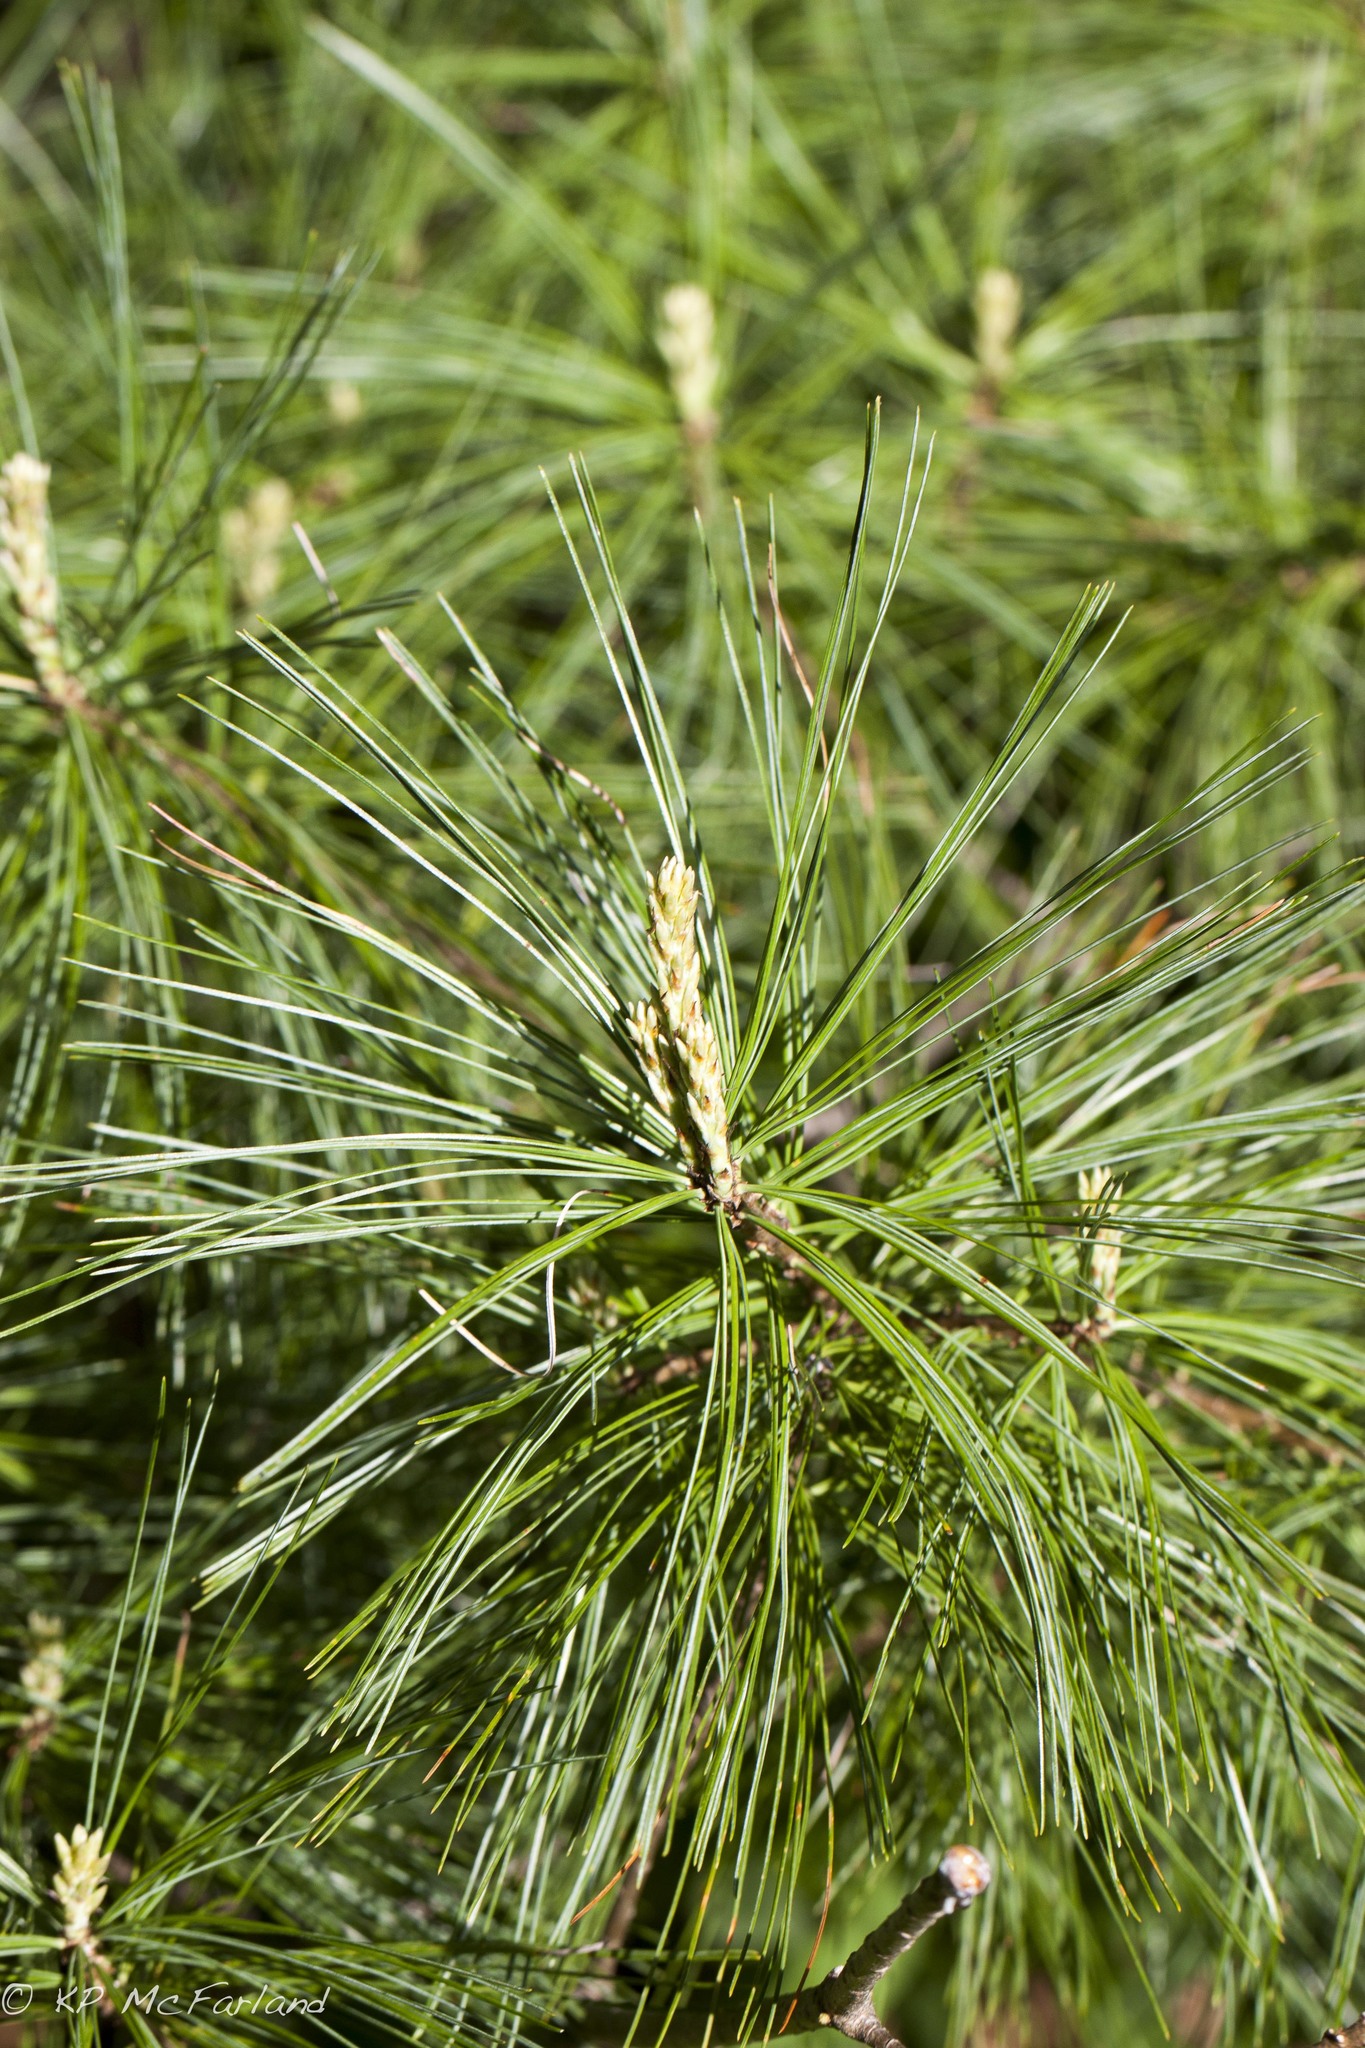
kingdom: Plantae
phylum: Tracheophyta
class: Pinopsida
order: Pinales
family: Pinaceae
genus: Pinus
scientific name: Pinus strobus
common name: Weymouth pine
